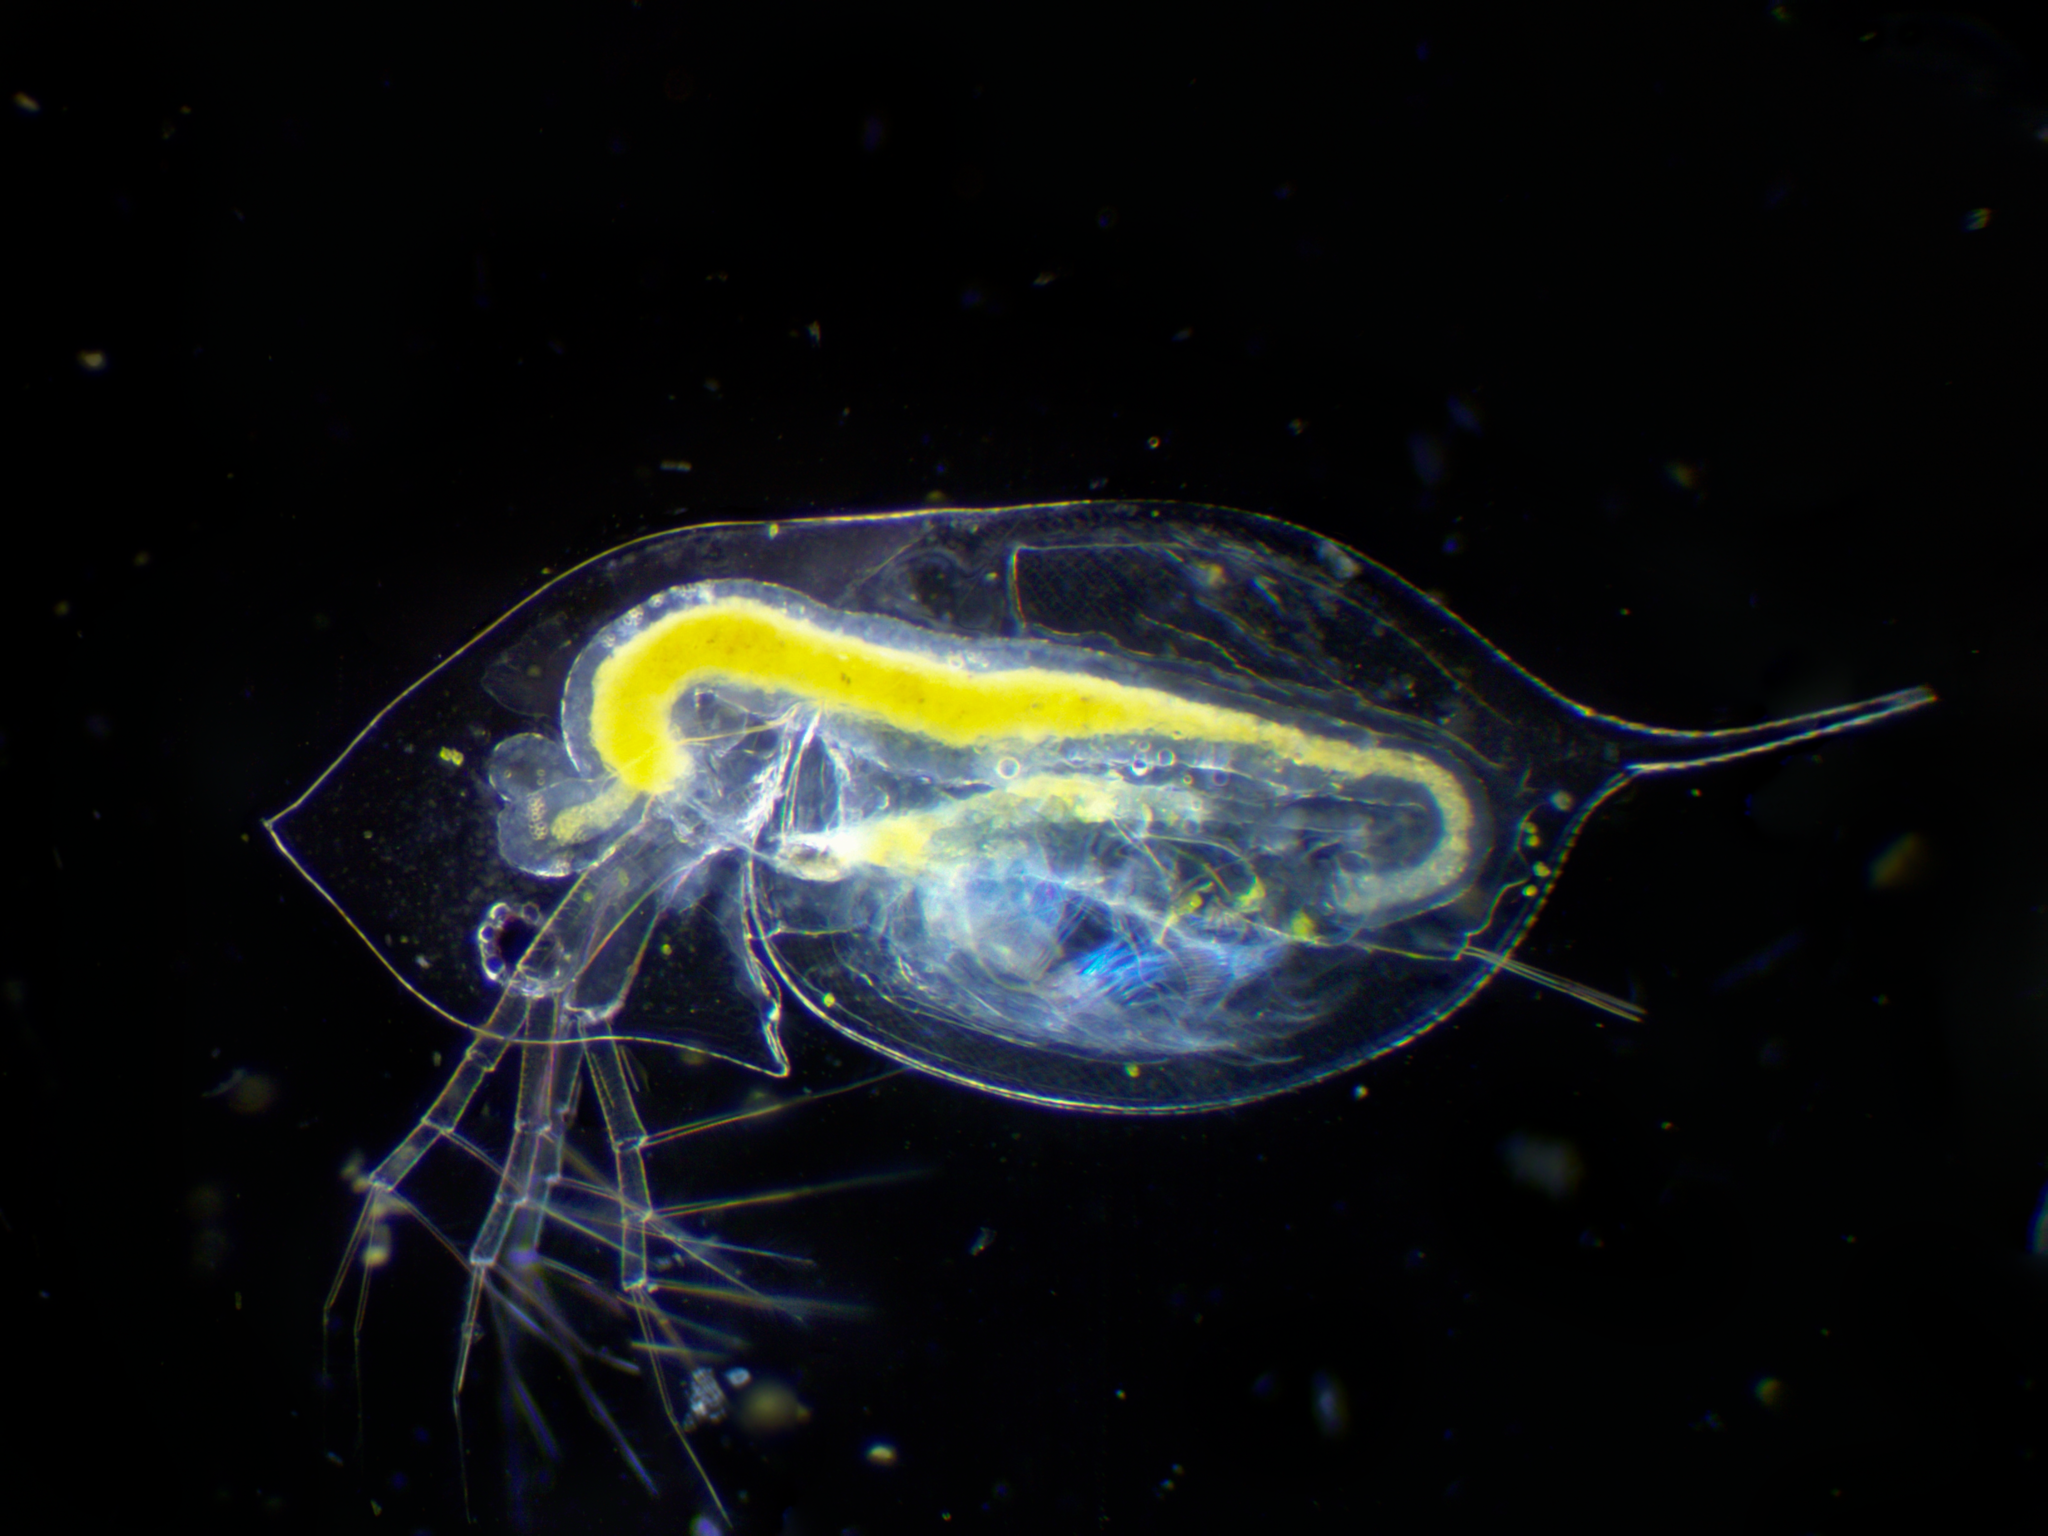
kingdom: Animalia
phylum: Arthropoda
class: Branchiopoda
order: Diplostraca
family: Daphniidae
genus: Daphnia
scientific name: Daphnia galeata
